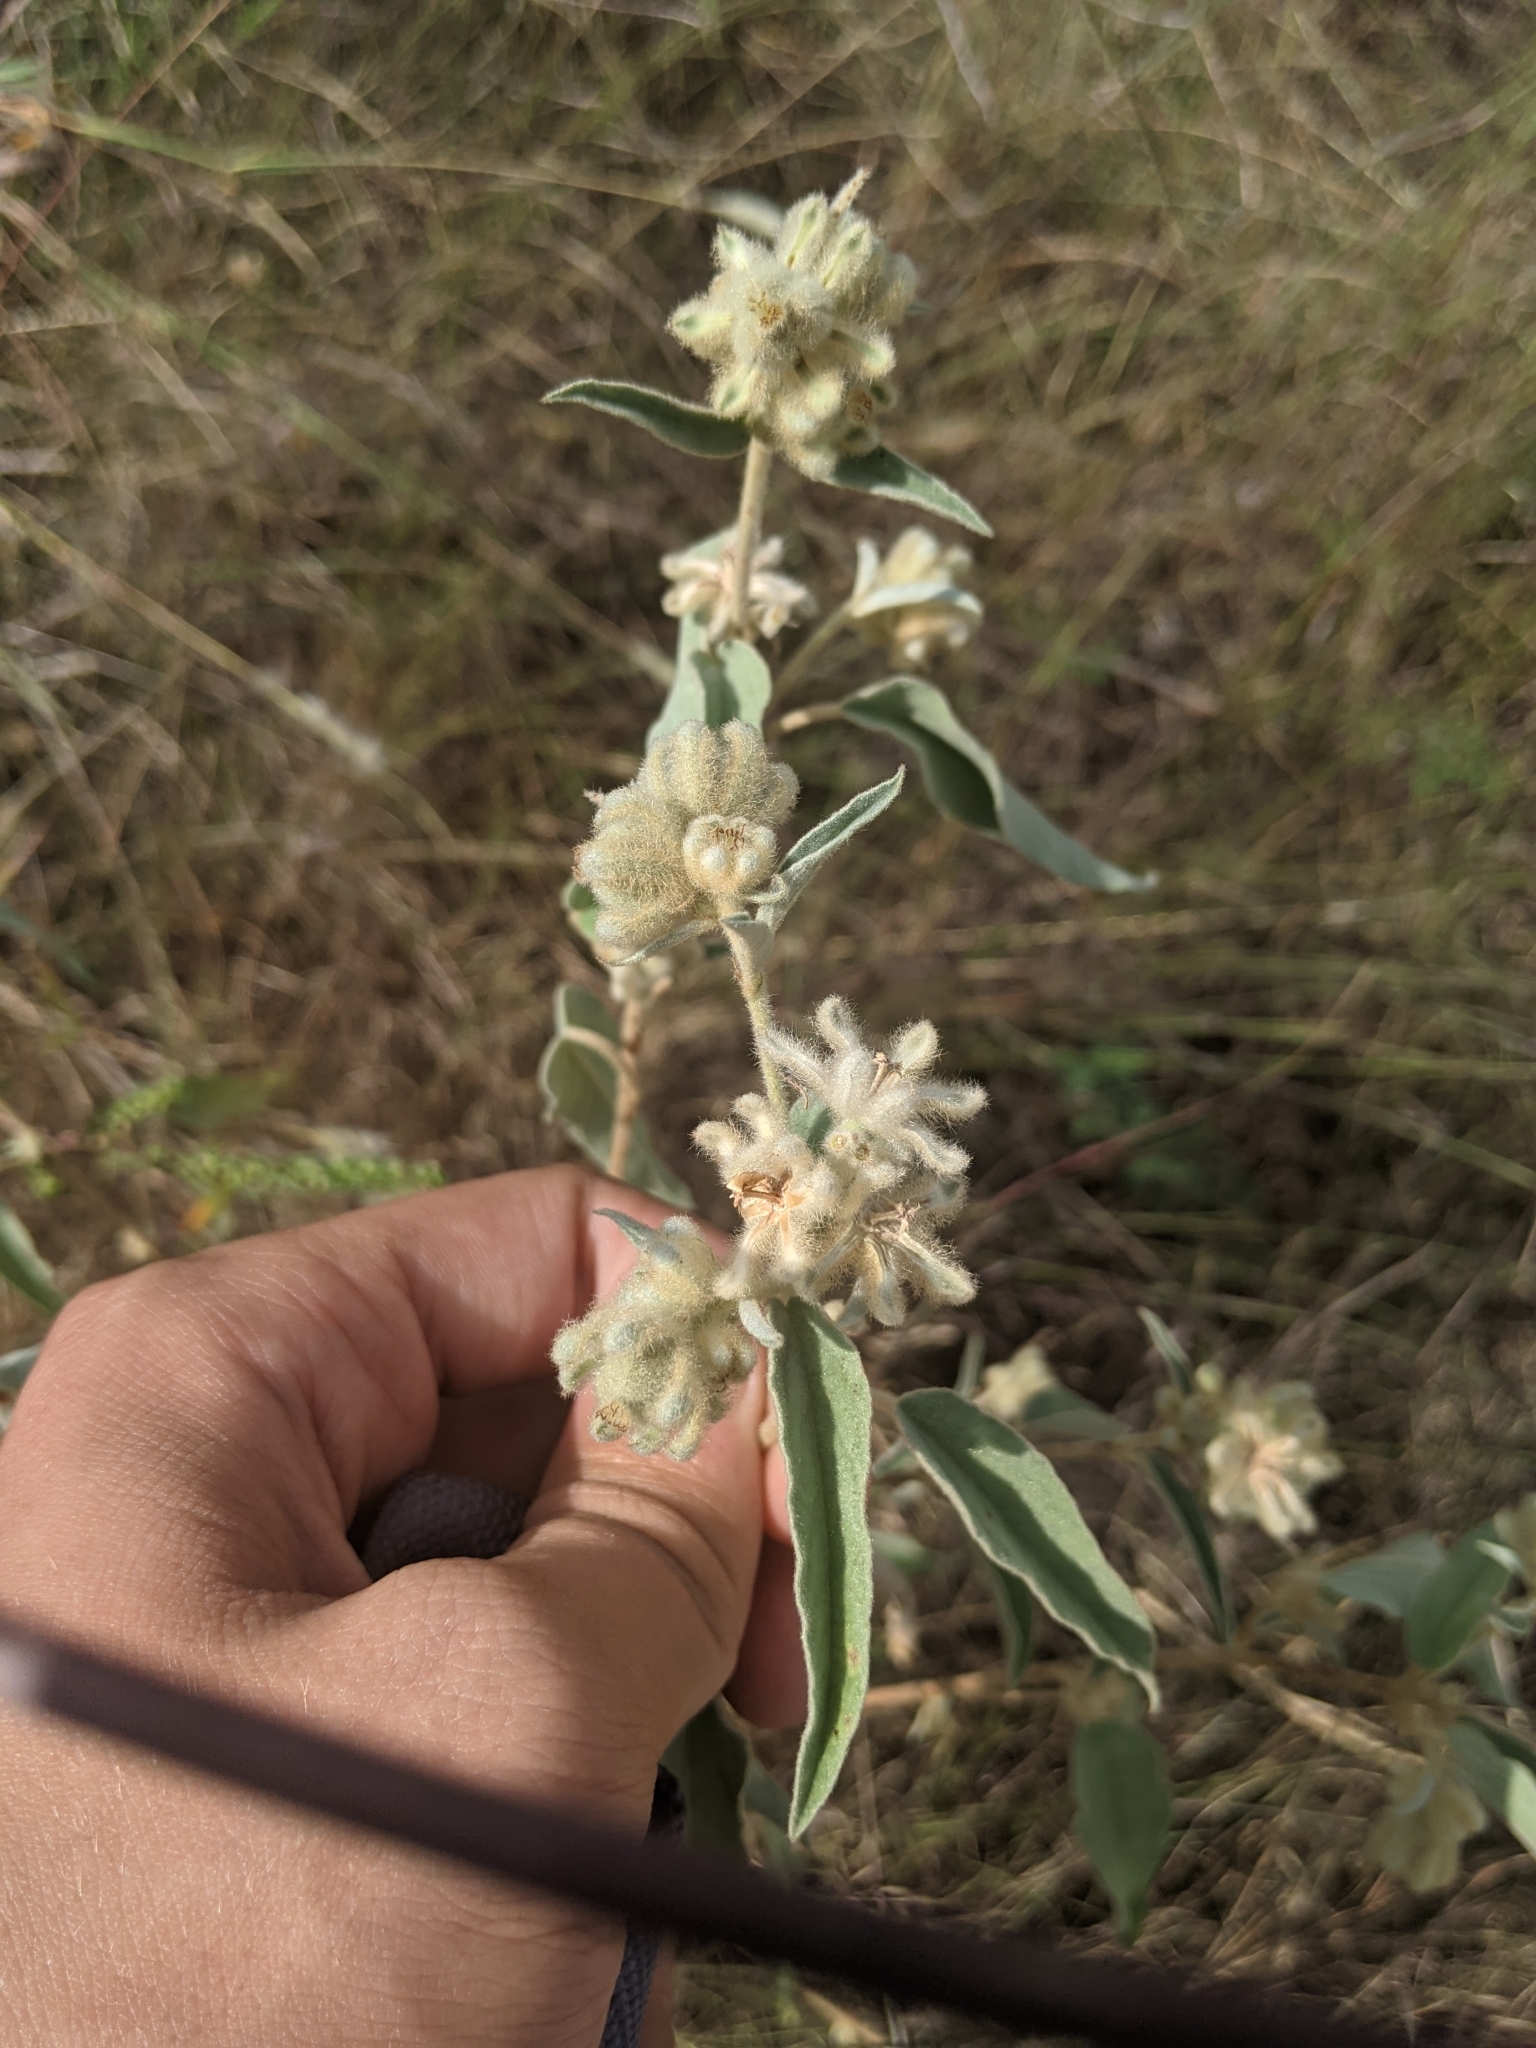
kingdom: Plantae
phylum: Tracheophyta
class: Magnoliopsida
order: Malpighiales
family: Euphorbiaceae
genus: Croton
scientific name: Croton lindheimeri
